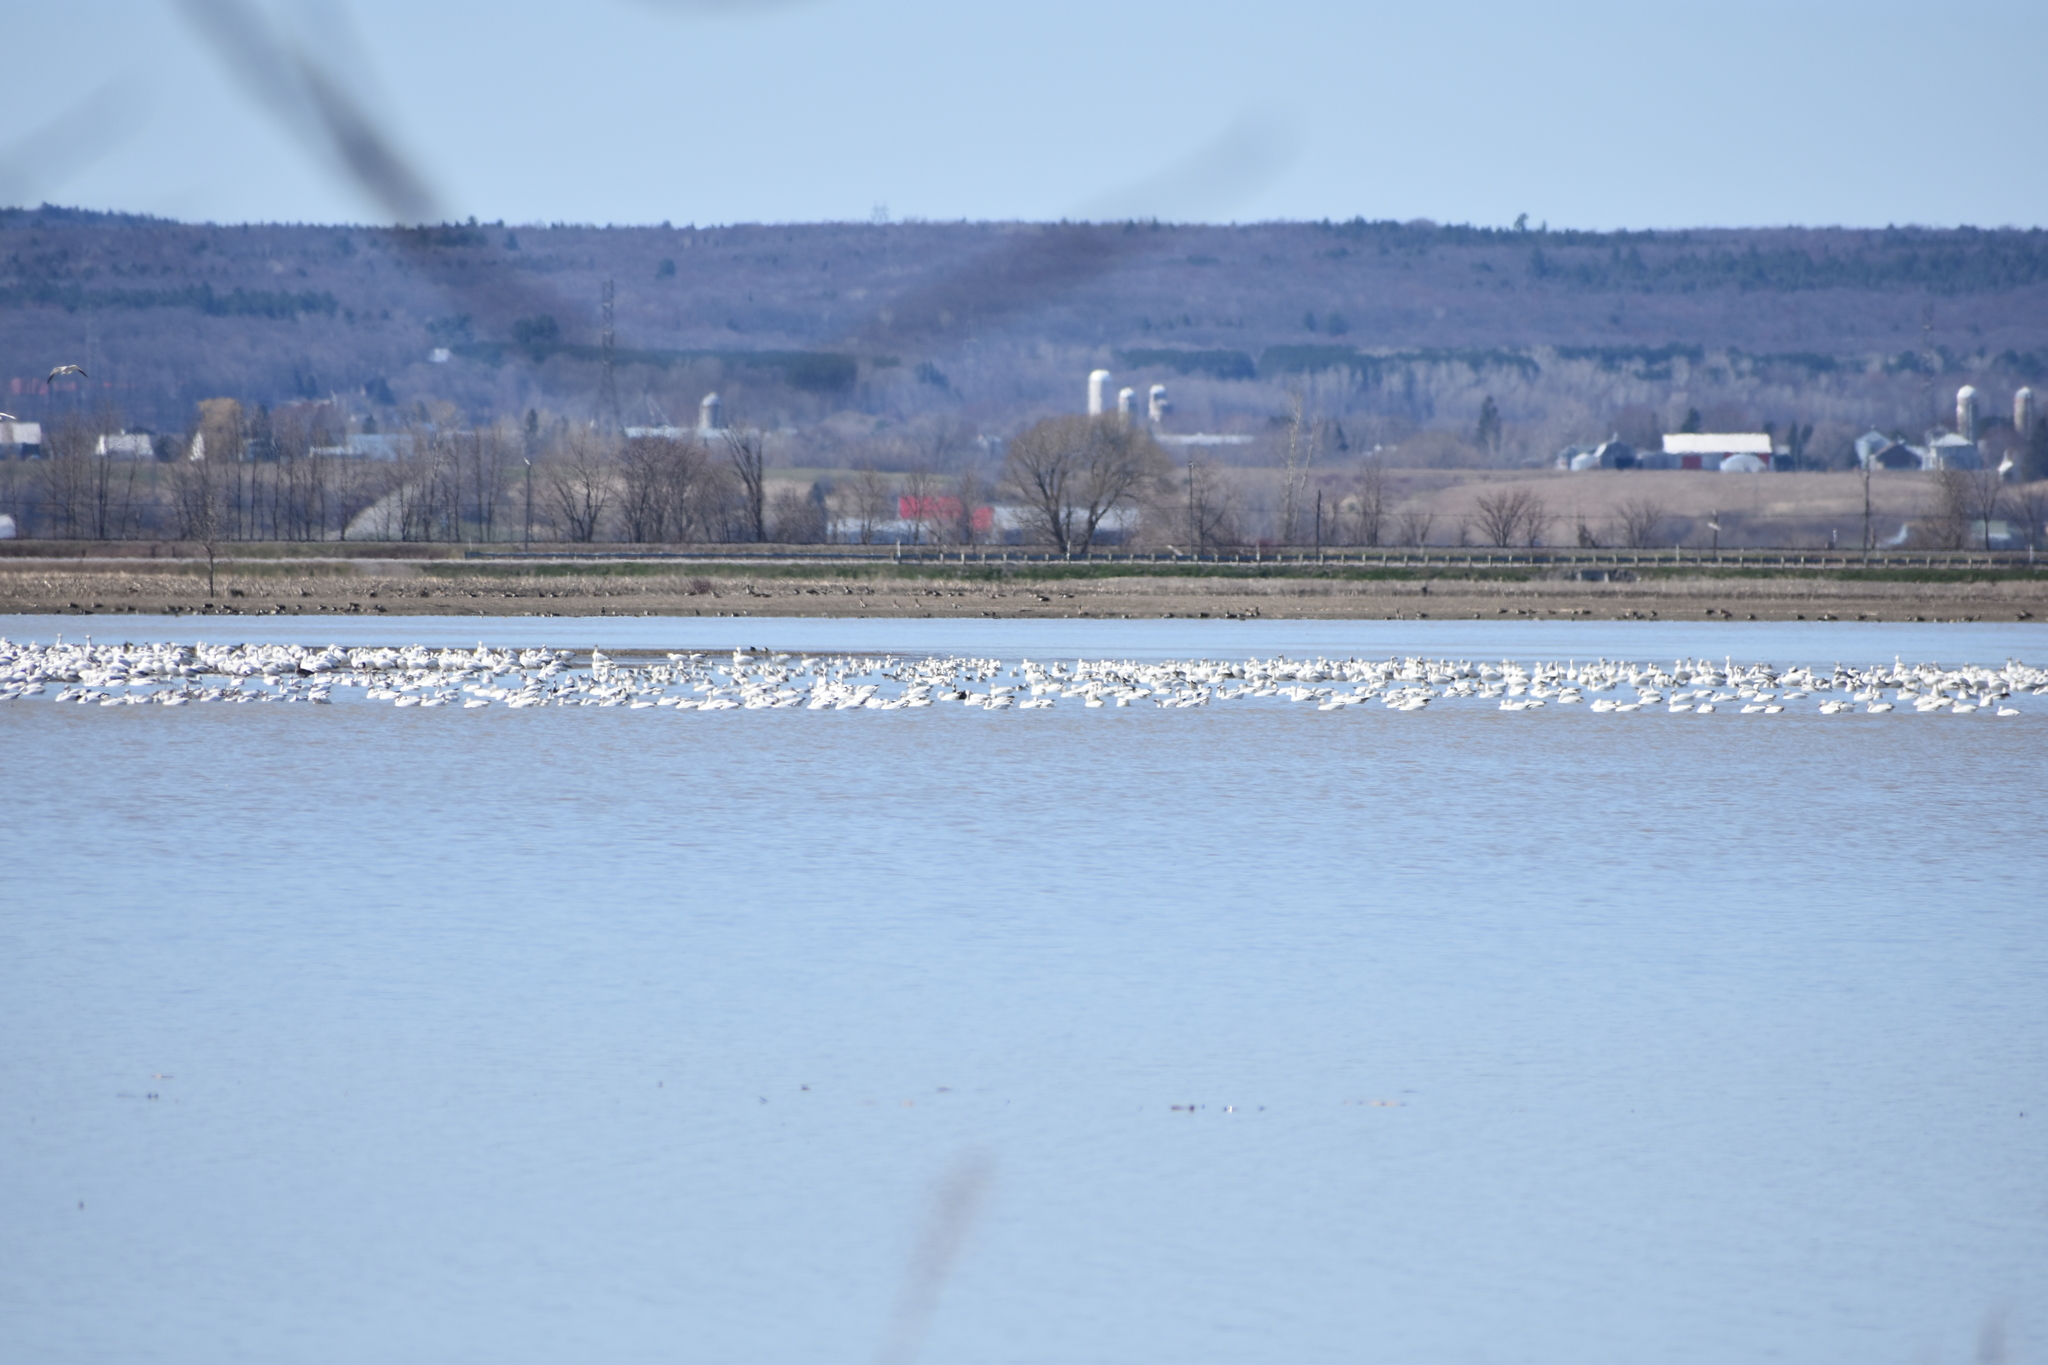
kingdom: Animalia
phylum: Chordata
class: Aves
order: Anseriformes
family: Anatidae
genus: Anser
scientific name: Anser caerulescens
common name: Snow goose
